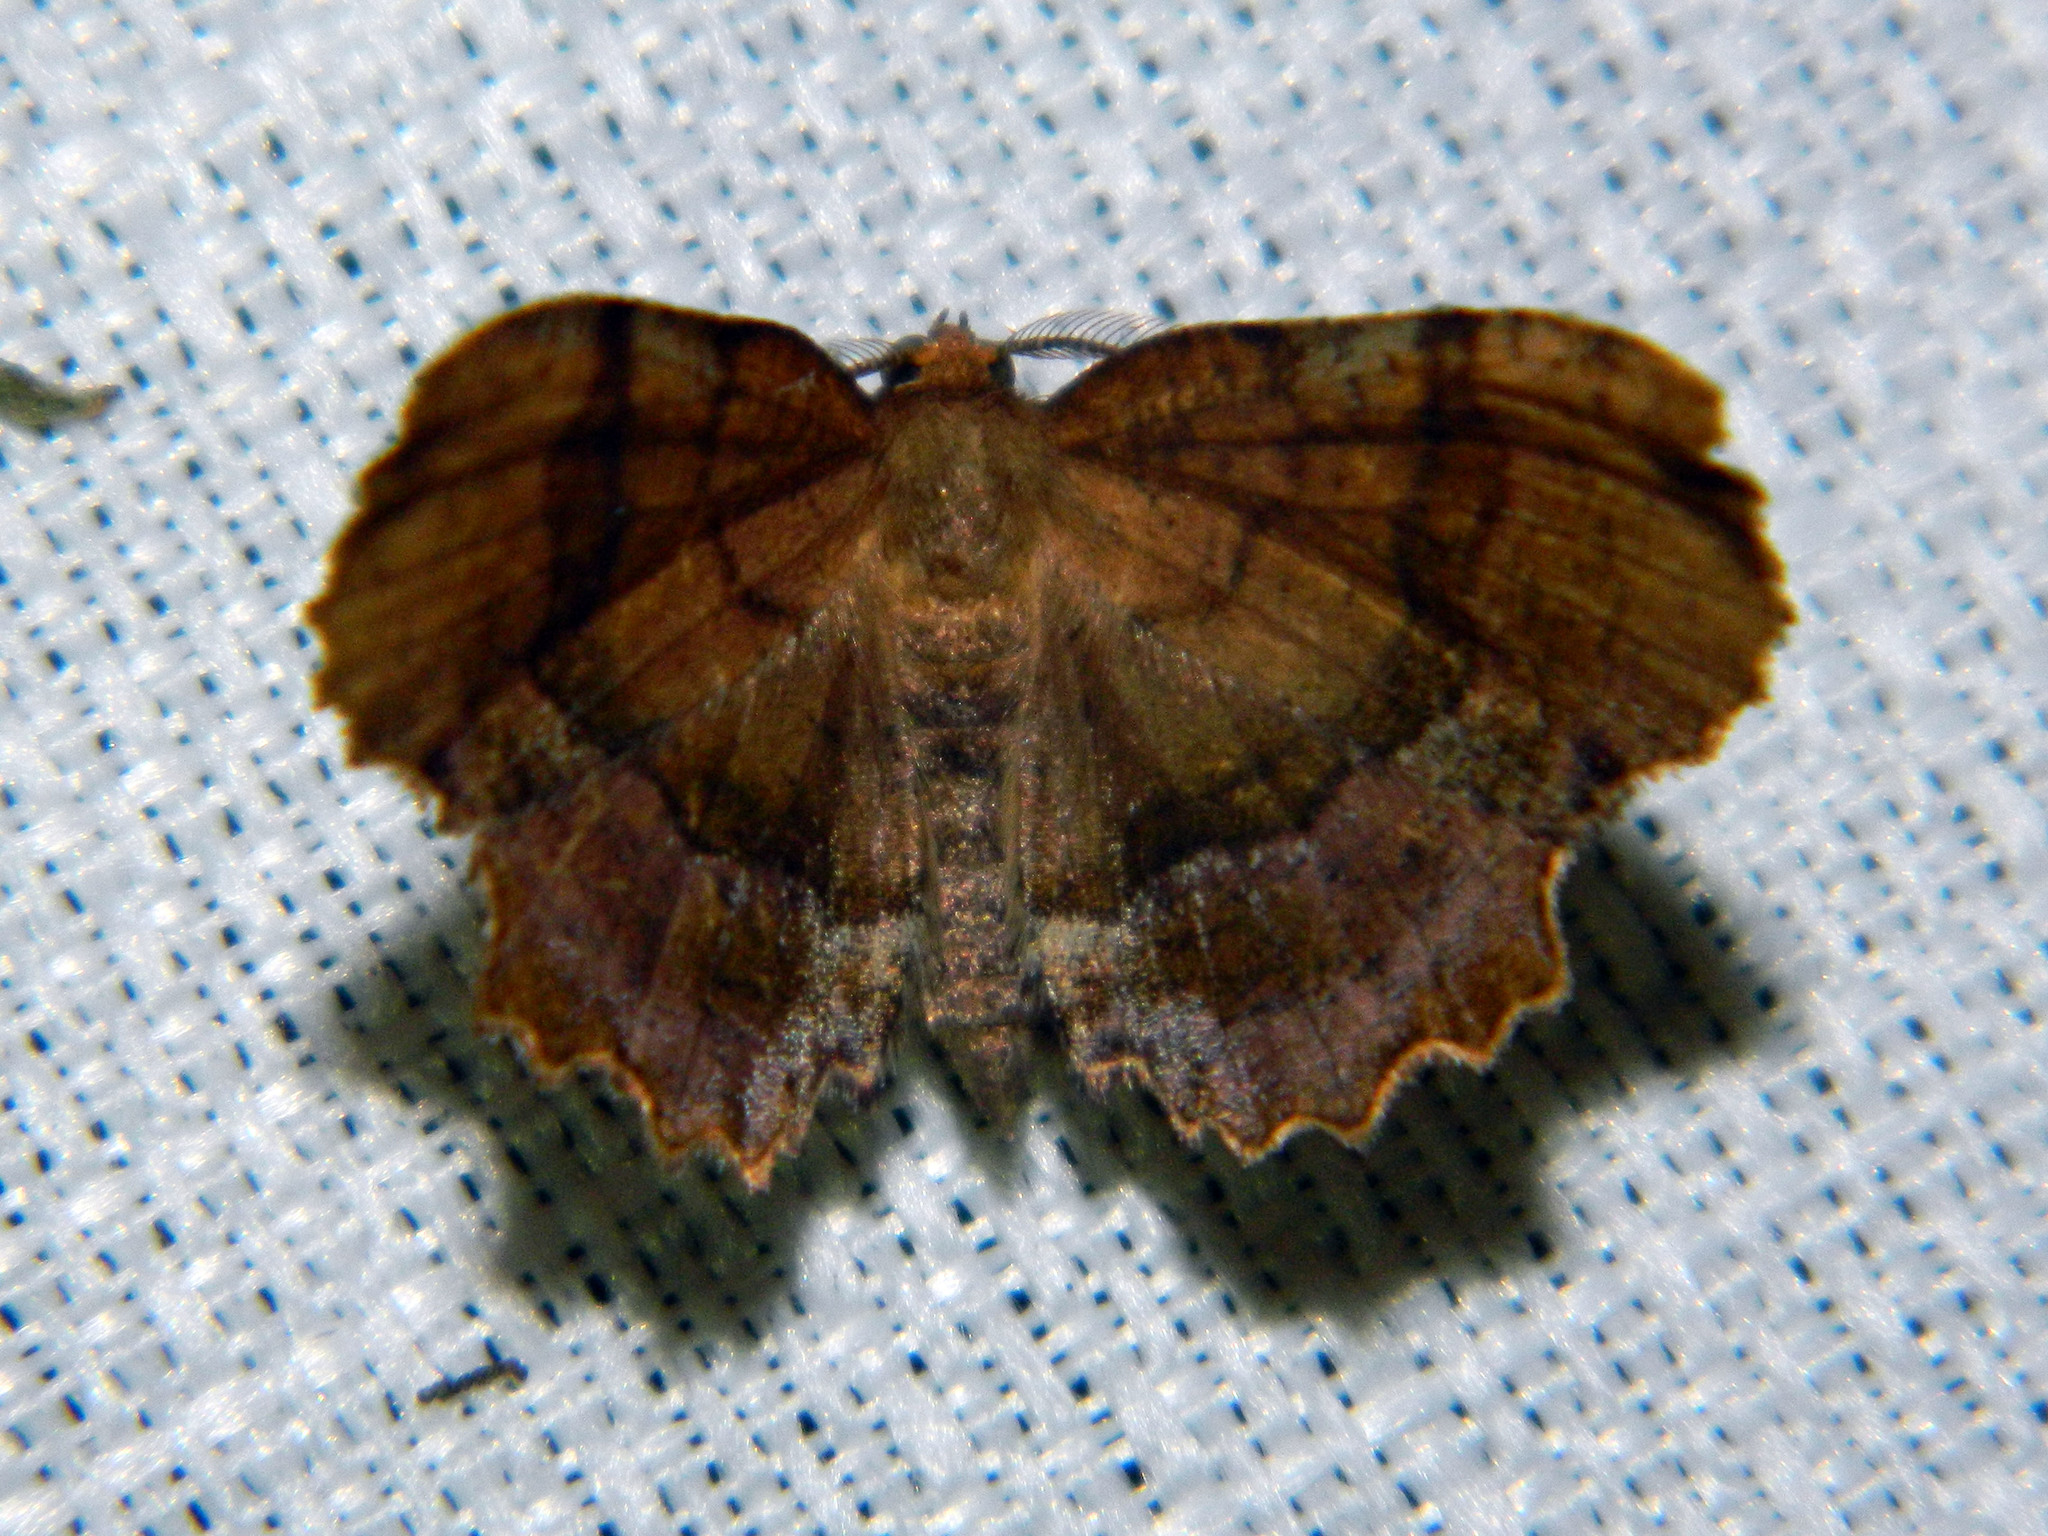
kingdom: Animalia
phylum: Arthropoda
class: Insecta
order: Lepidoptera
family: Geometridae
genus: Cepphis
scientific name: Cepphis armataria
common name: Scallop moth
